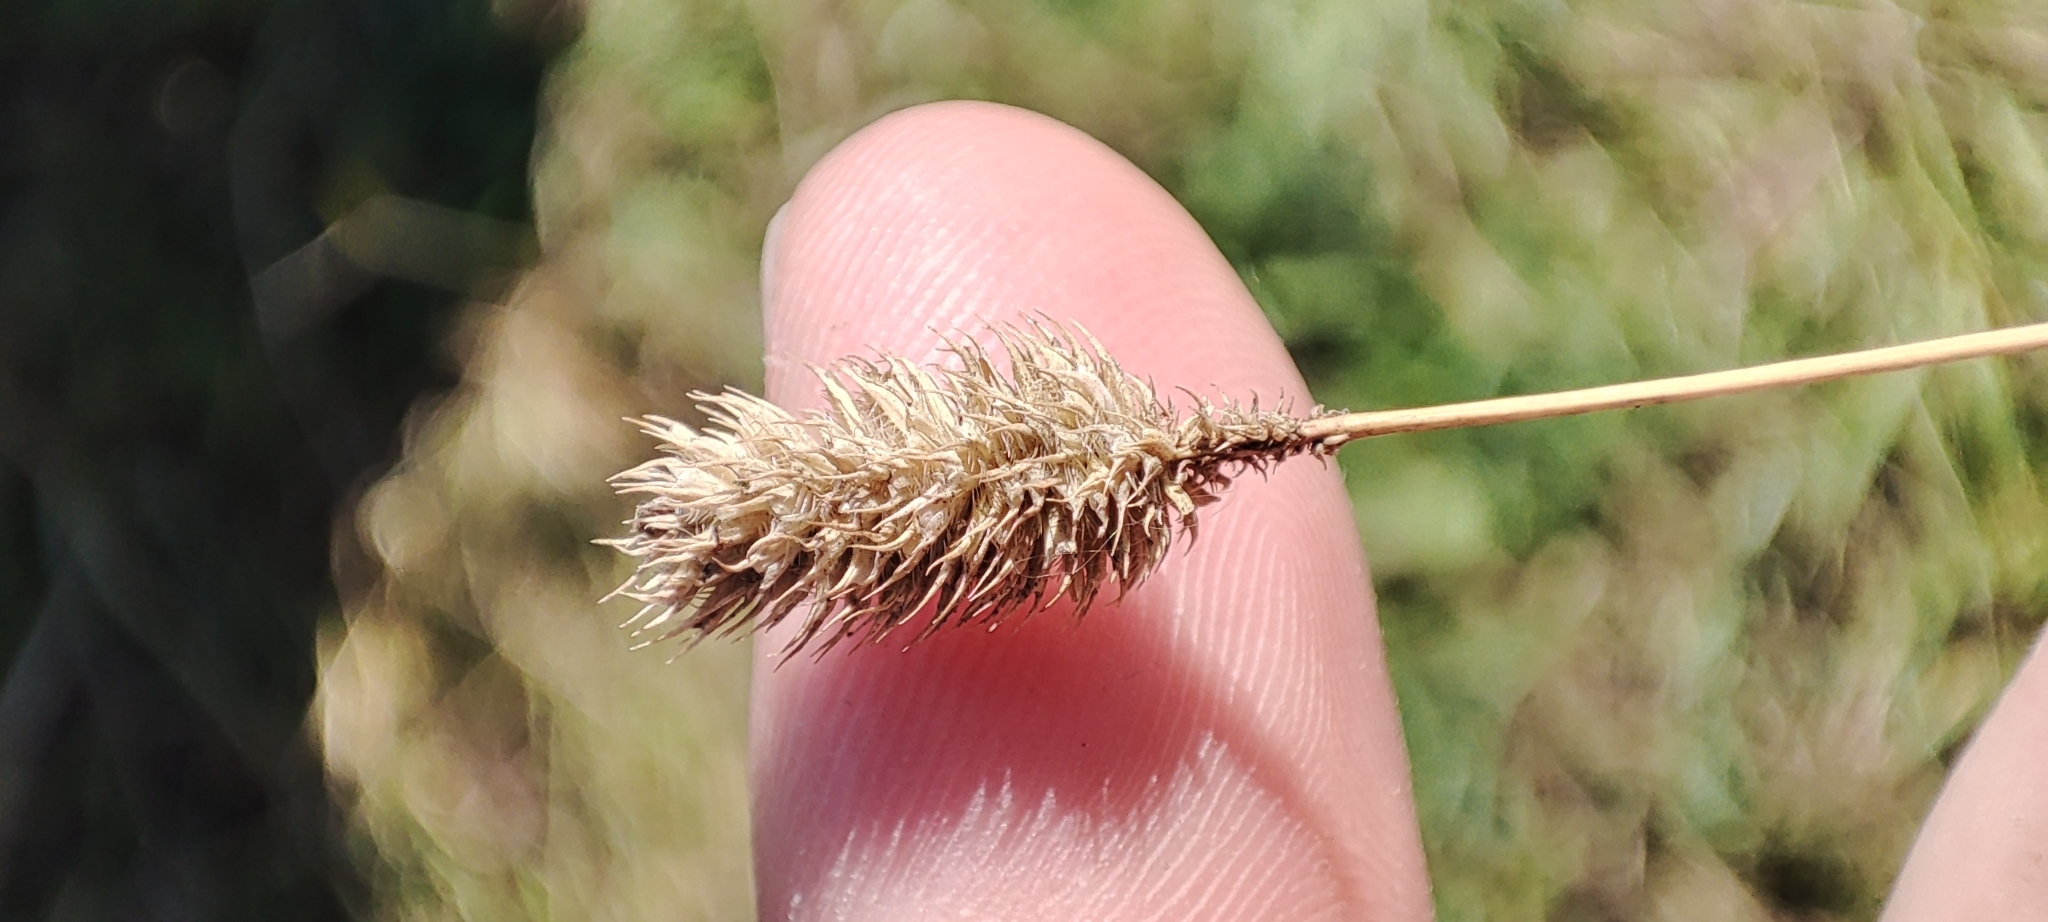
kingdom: Plantae
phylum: Tracheophyta
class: Liliopsida
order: Poales
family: Poaceae
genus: Phleum
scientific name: Phleum pratense
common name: Timothy grass
